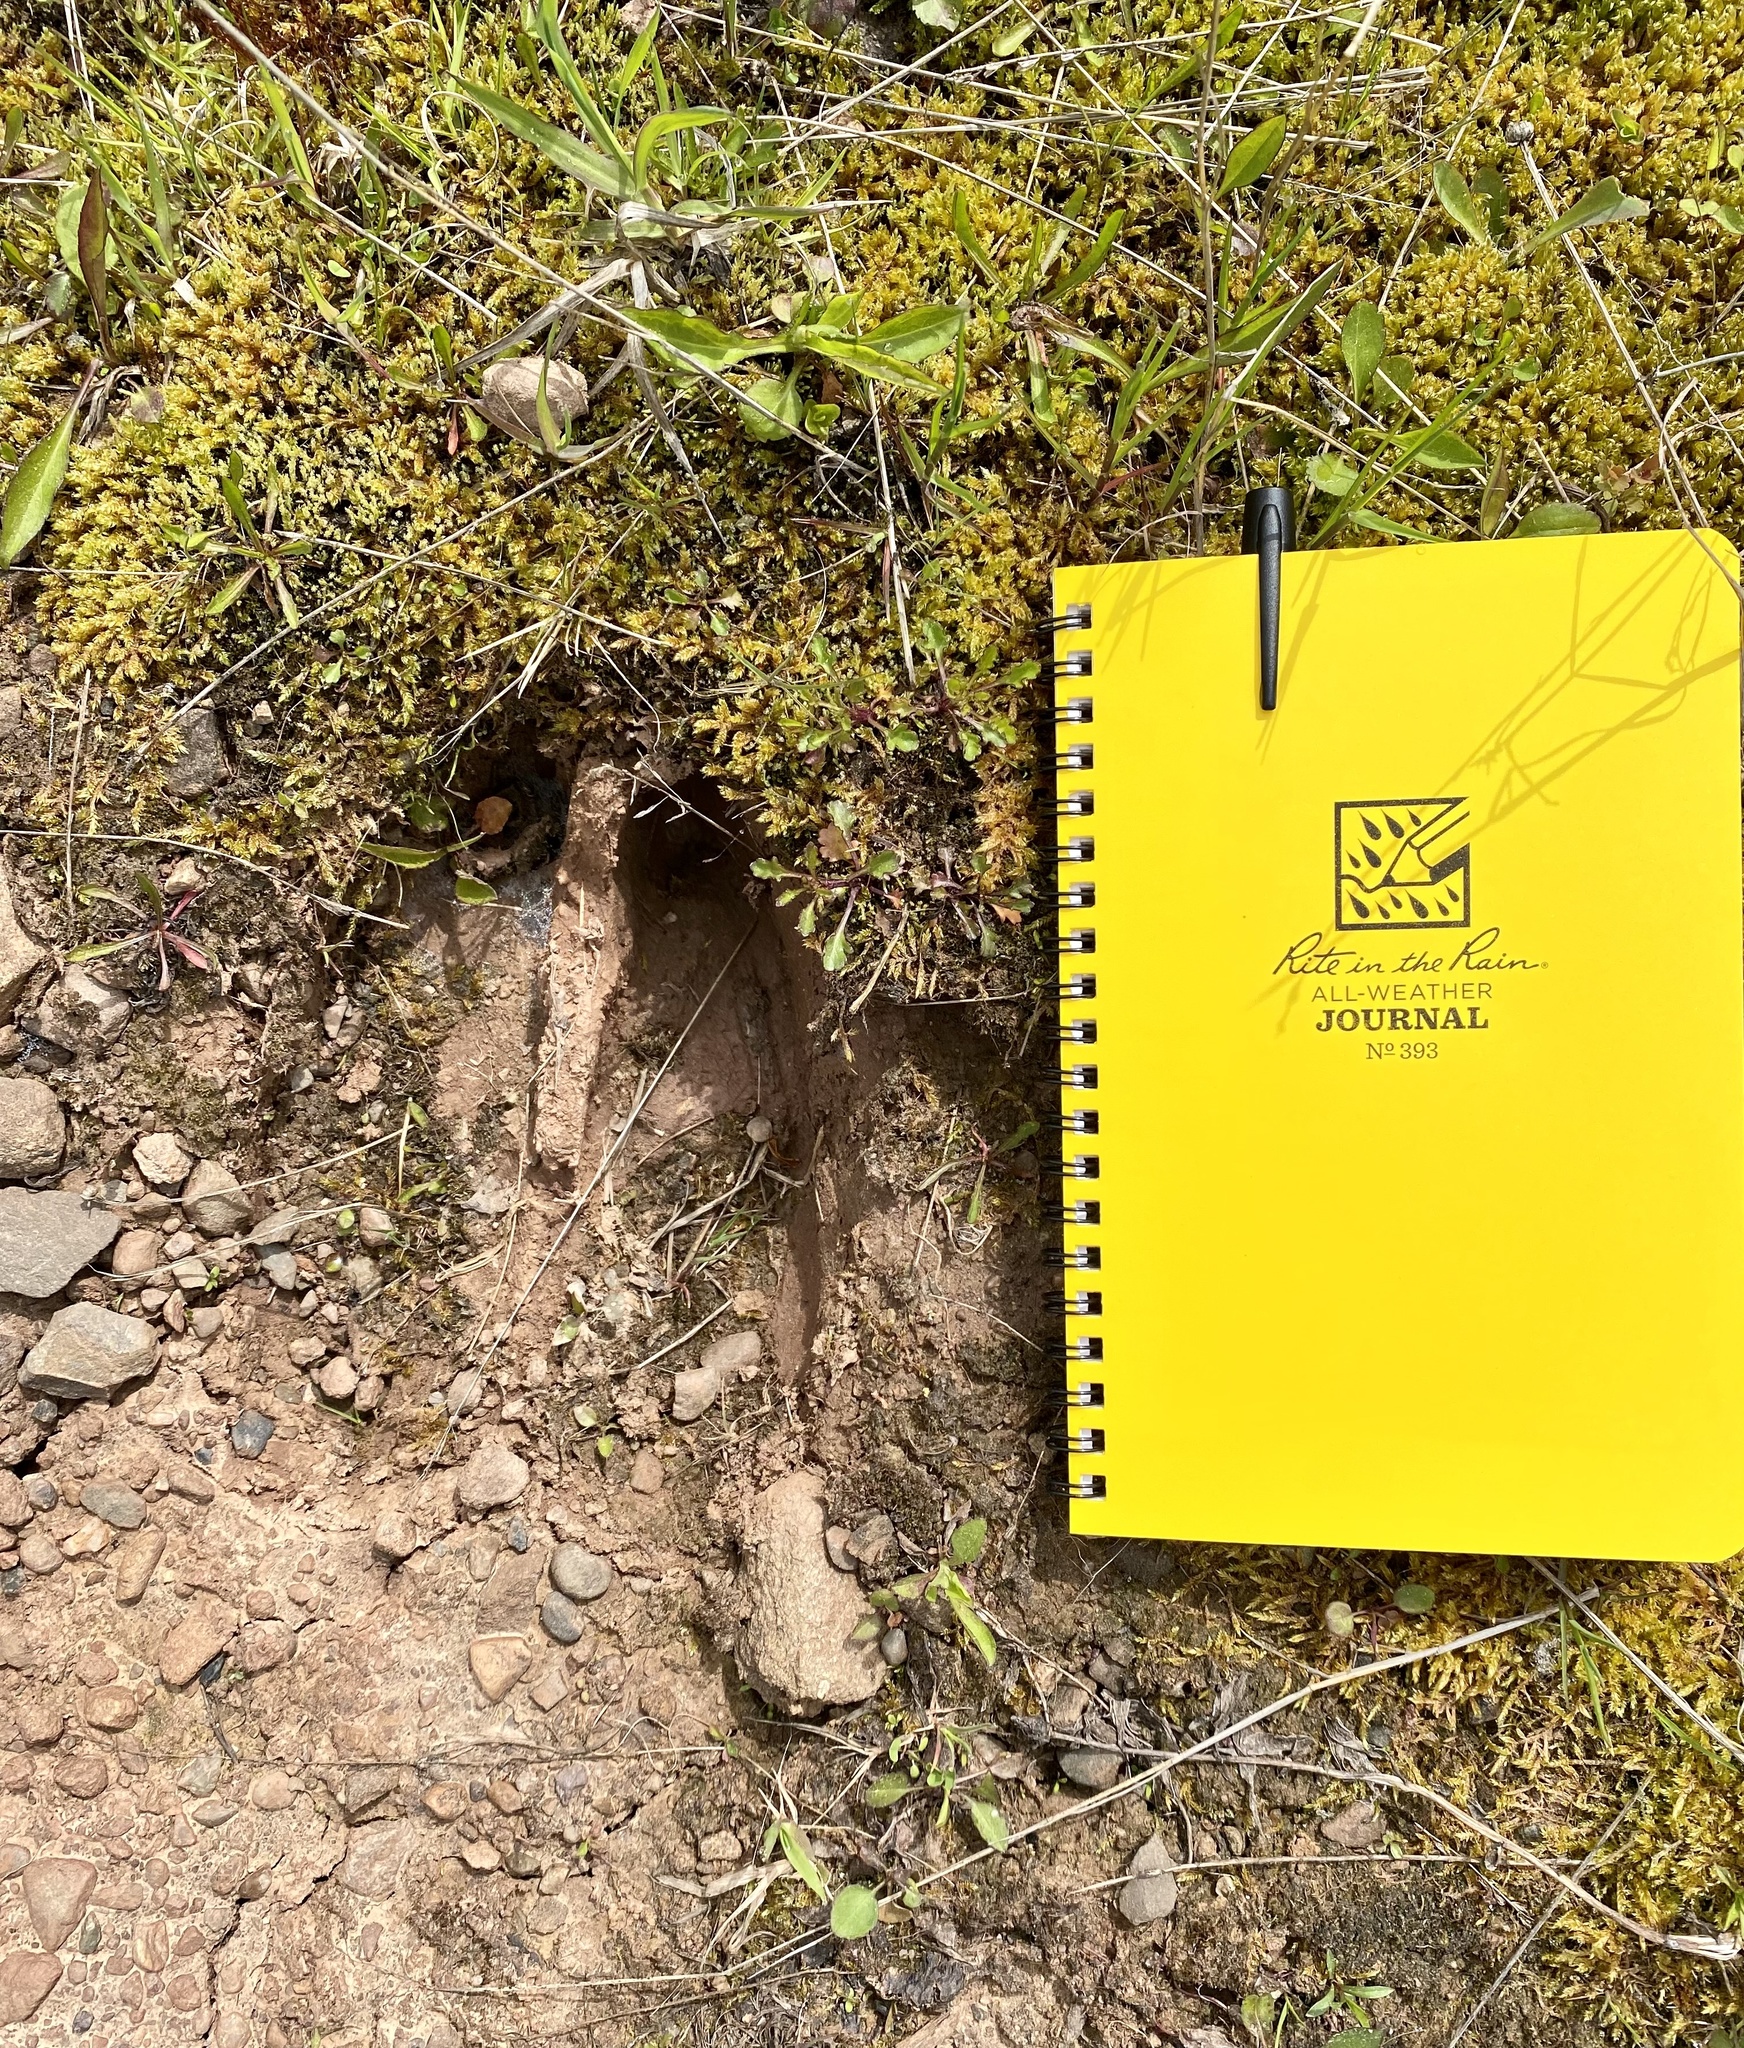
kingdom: Animalia
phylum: Chordata
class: Mammalia
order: Artiodactyla
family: Cervidae
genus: Alces
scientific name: Alces alces
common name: Moose
